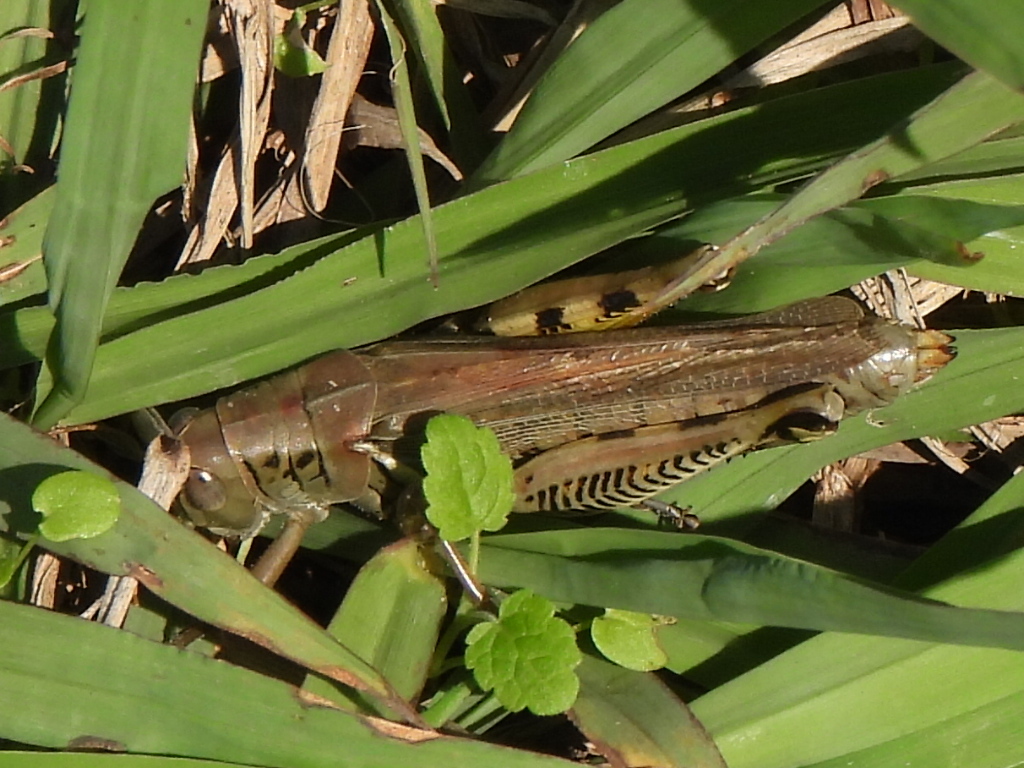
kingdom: Animalia
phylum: Arthropoda
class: Insecta
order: Orthoptera
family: Acrididae
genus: Melanoplus
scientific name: Melanoplus differentialis
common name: Differential grasshopper
